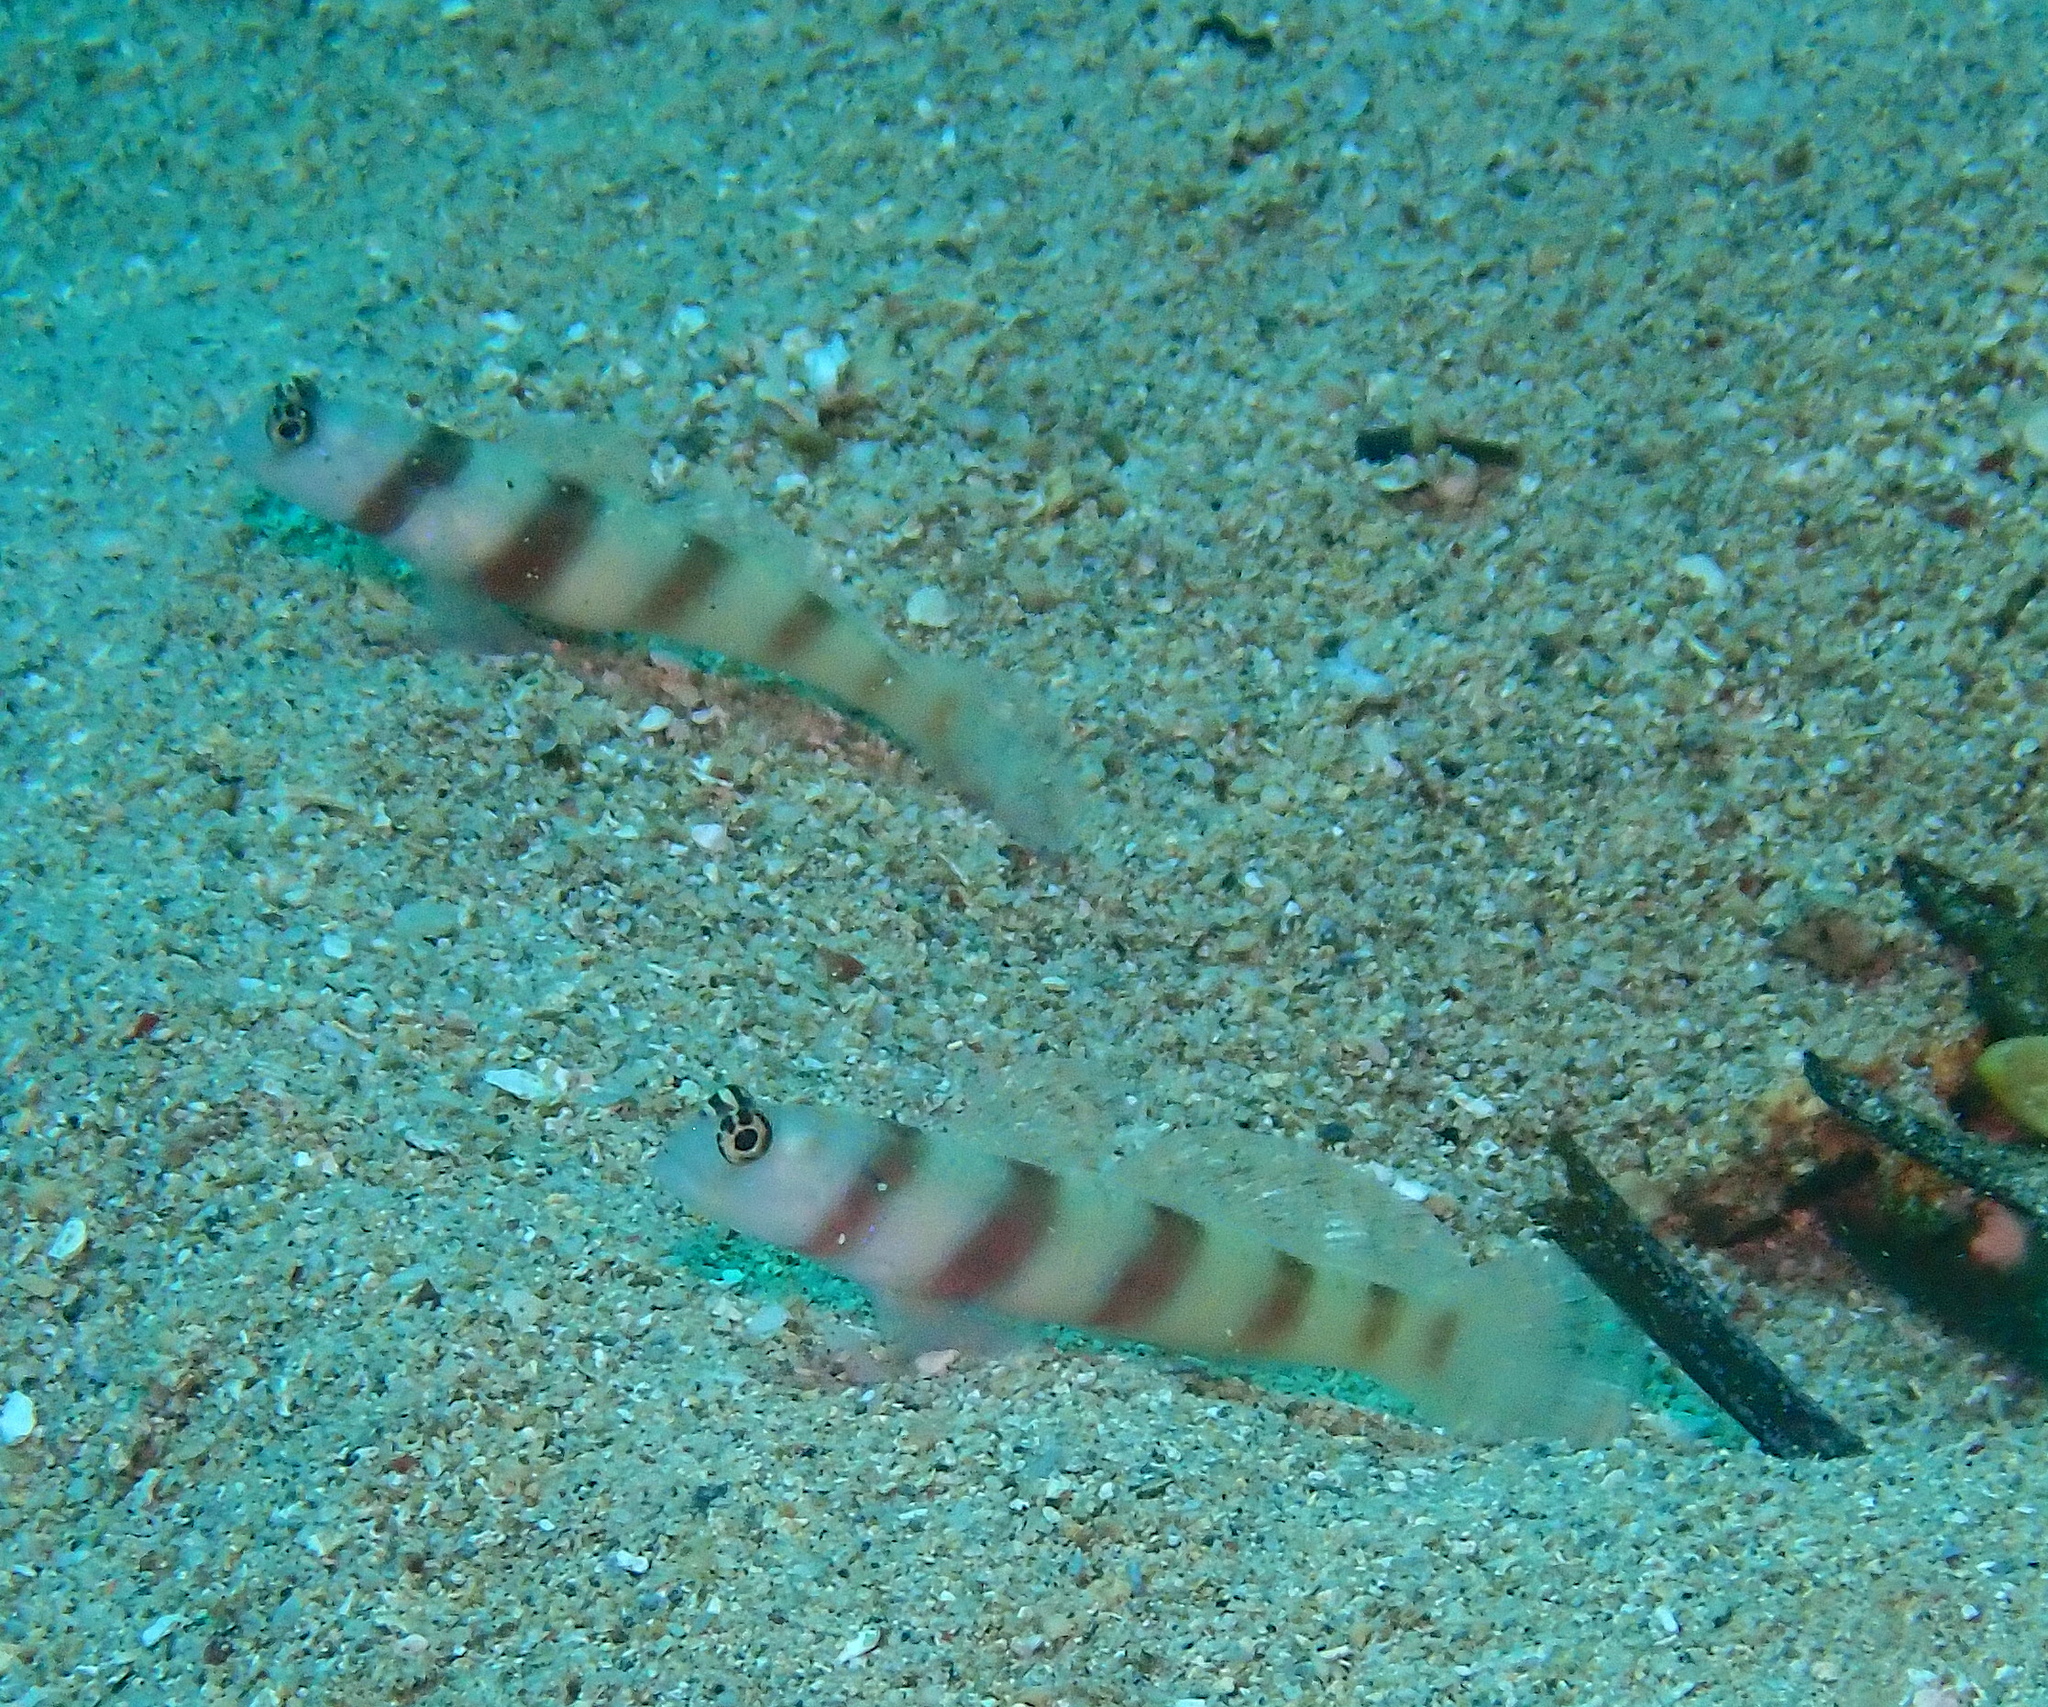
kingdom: Animalia
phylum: Chordata
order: Perciformes
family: Gobiidae
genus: Amblyeleotris
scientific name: Amblyeleotris steinitzi
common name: Steinitz' prawn-goby
